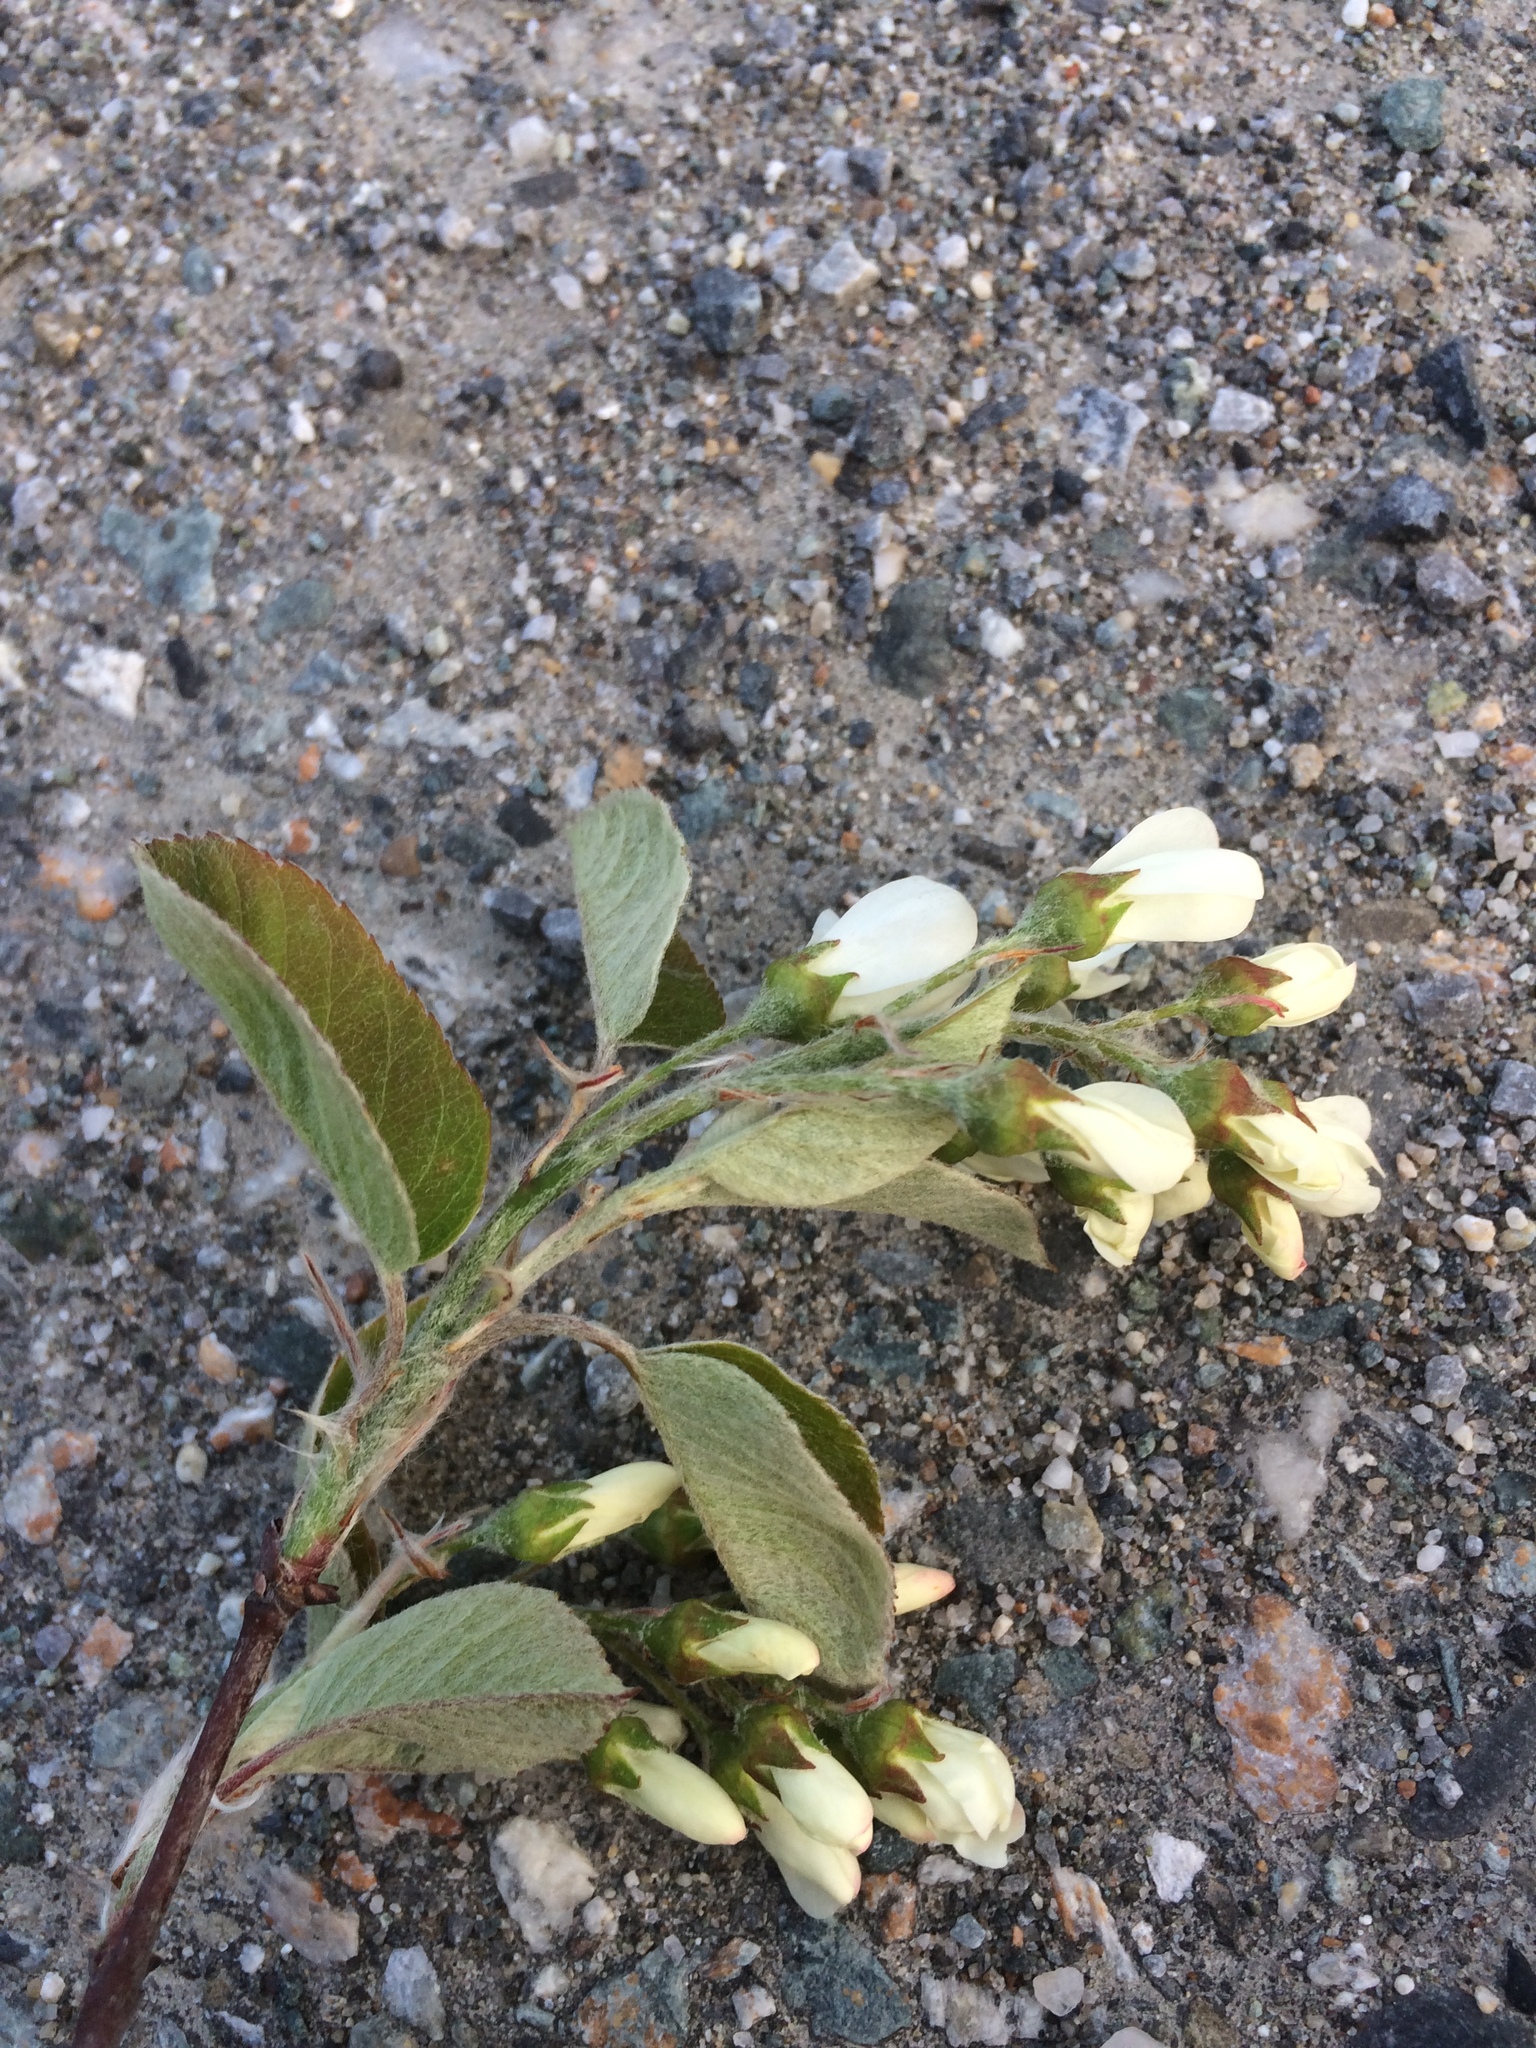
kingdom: Plantae
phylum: Tracheophyta
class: Magnoliopsida
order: Rosales
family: Rosaceae
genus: Amelanchier
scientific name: Amelanchier sanguinea
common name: Huron serviceberry
